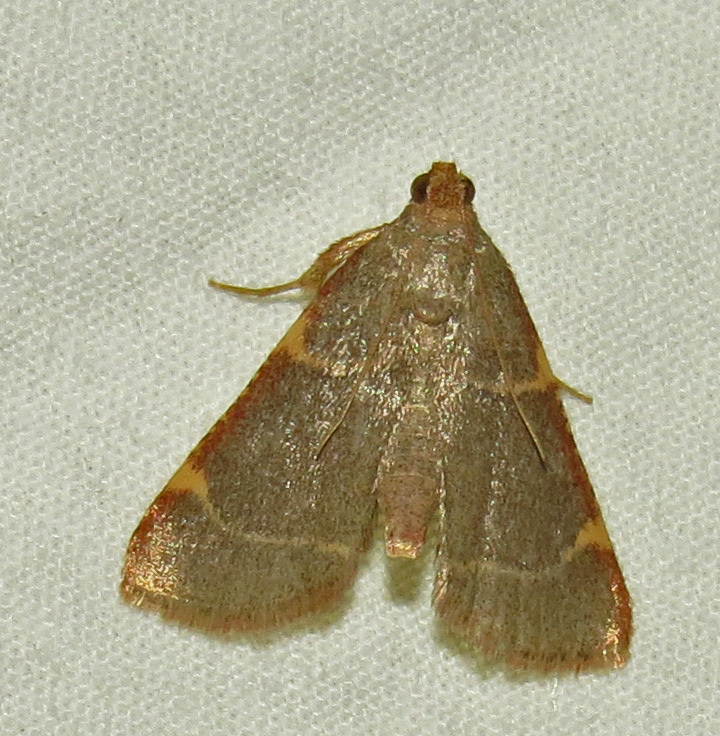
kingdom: Animalia
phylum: Arthropoda
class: Insecta
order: Lepidoptera
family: Pyralidae
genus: Hypsopygia
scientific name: Hypsopygia binodulalis
